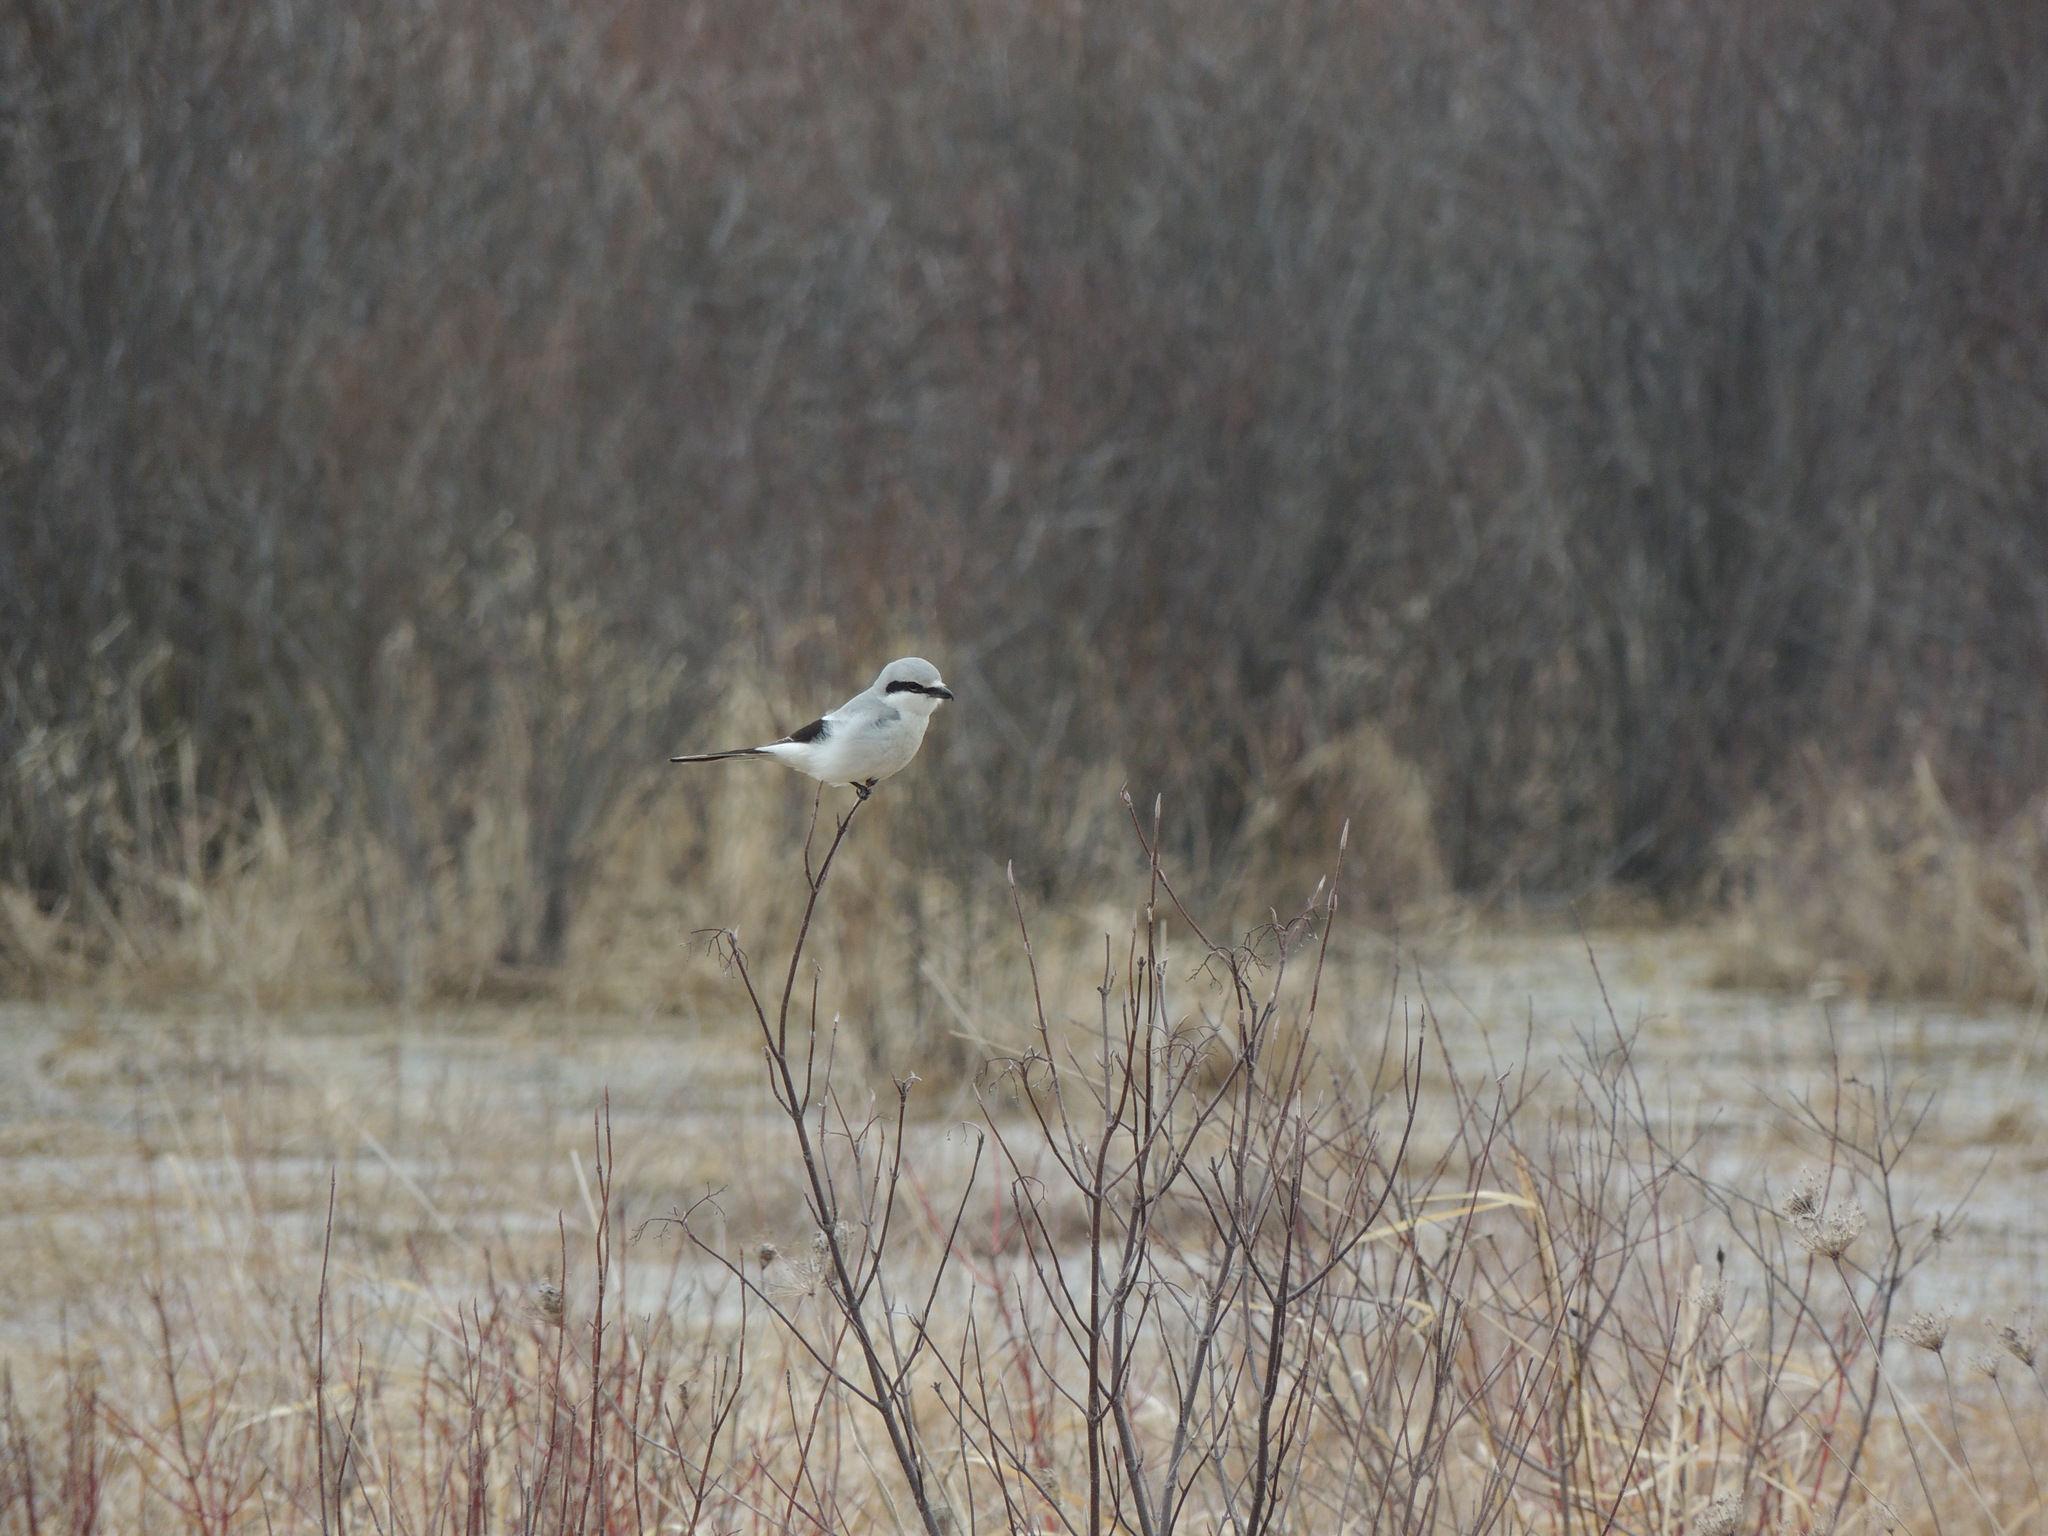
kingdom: Animalia
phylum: Chordata
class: Aves
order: Passeriformes
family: Laniidae
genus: Lanius
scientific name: Lanius borealis
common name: Northern shrike
